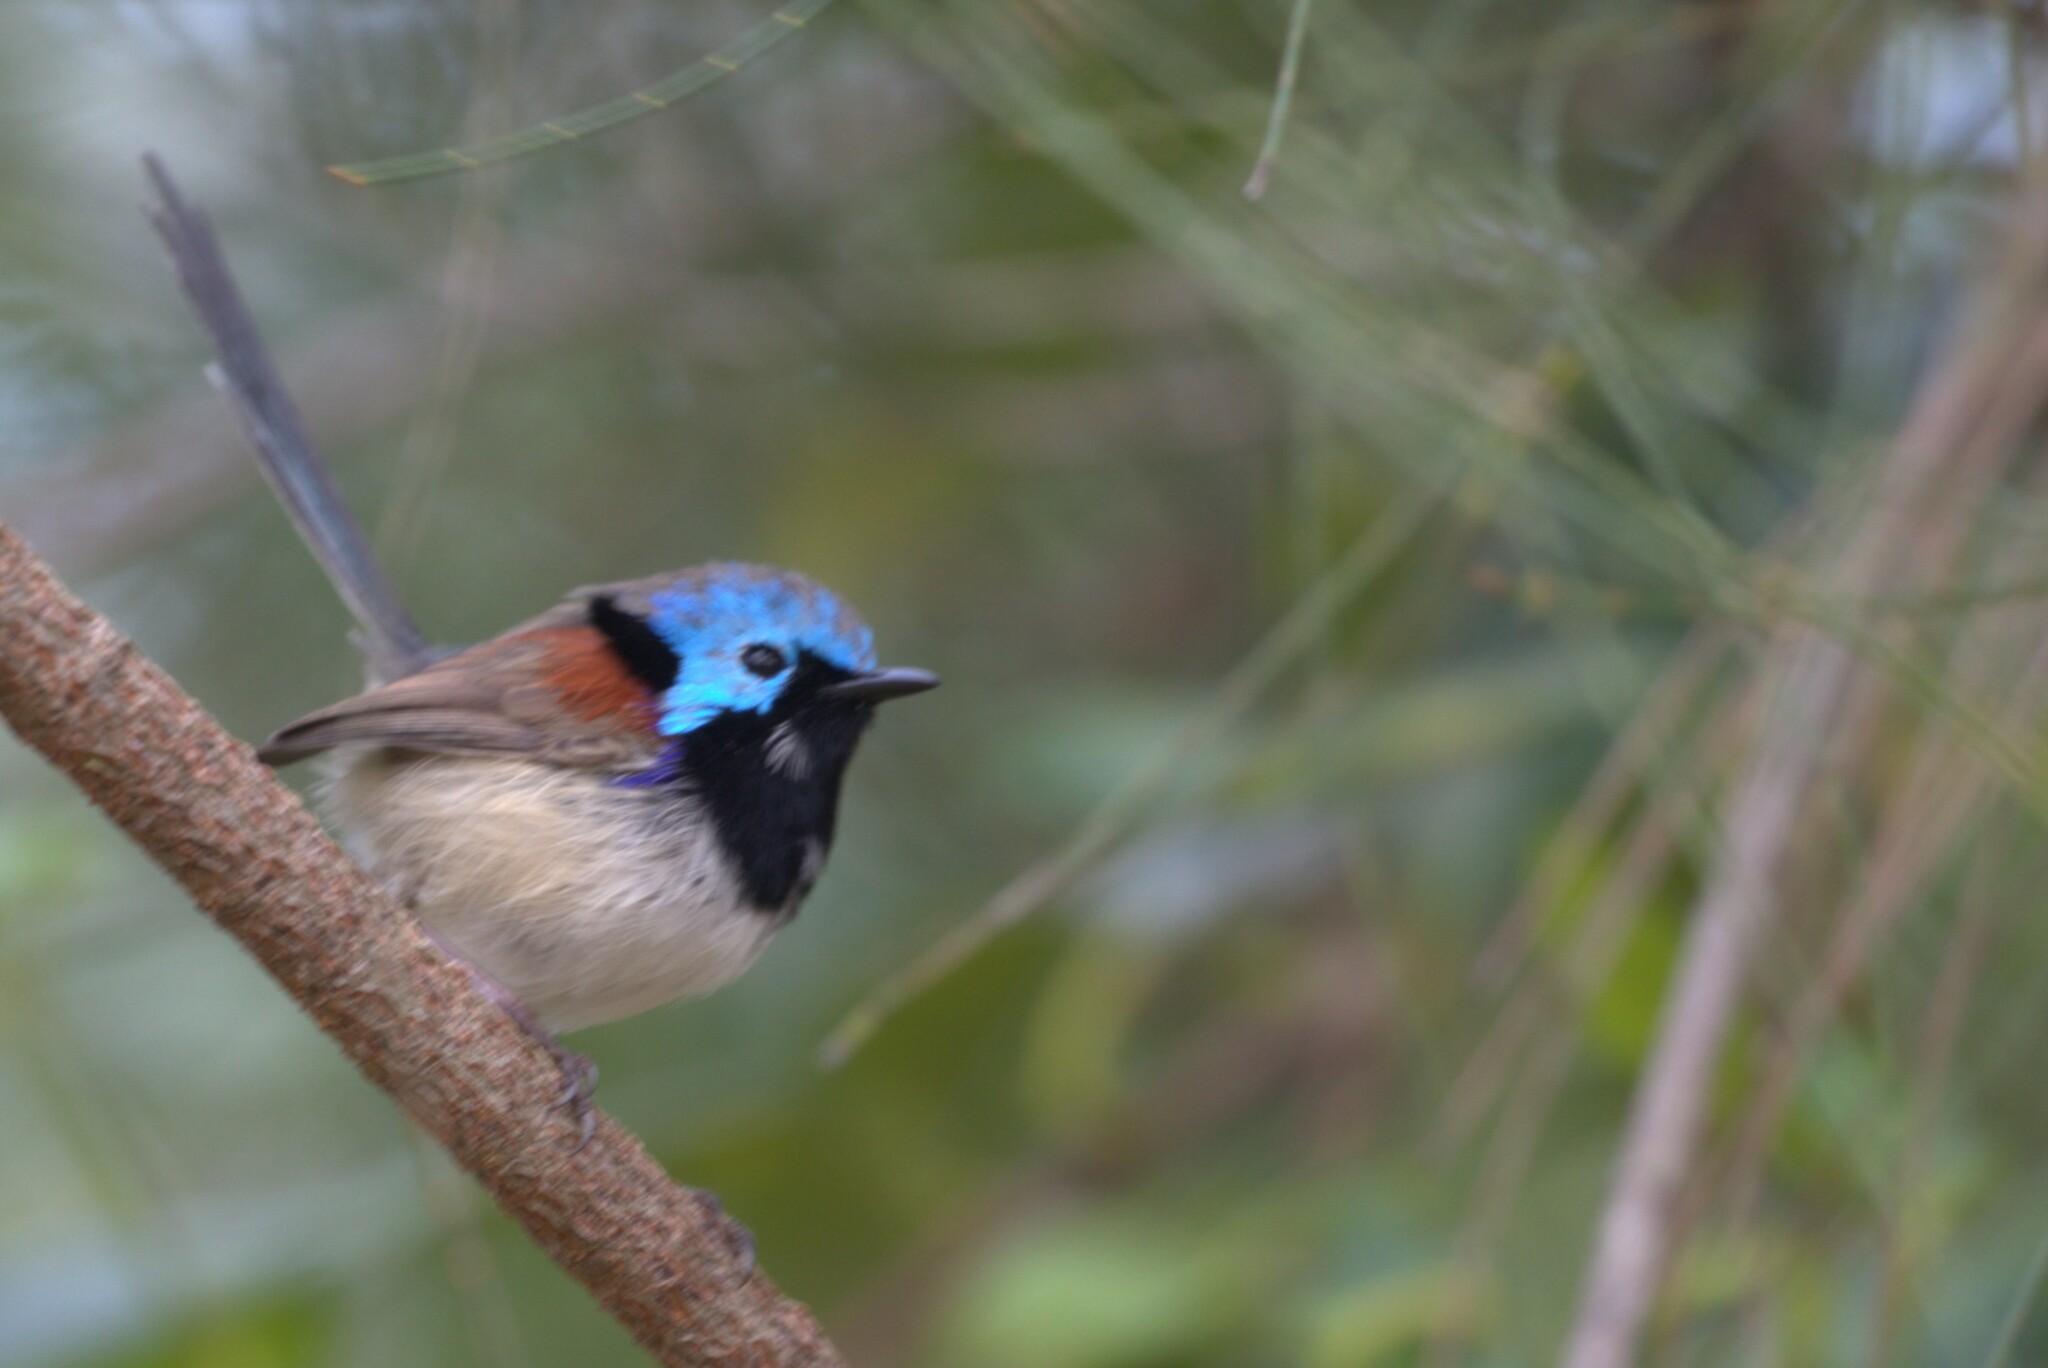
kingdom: Animalia
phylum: Chordata
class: Aves
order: Passeriformes
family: Maluridae
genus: Malurus
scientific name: Malurus lamberti
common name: Variegated fairywren
